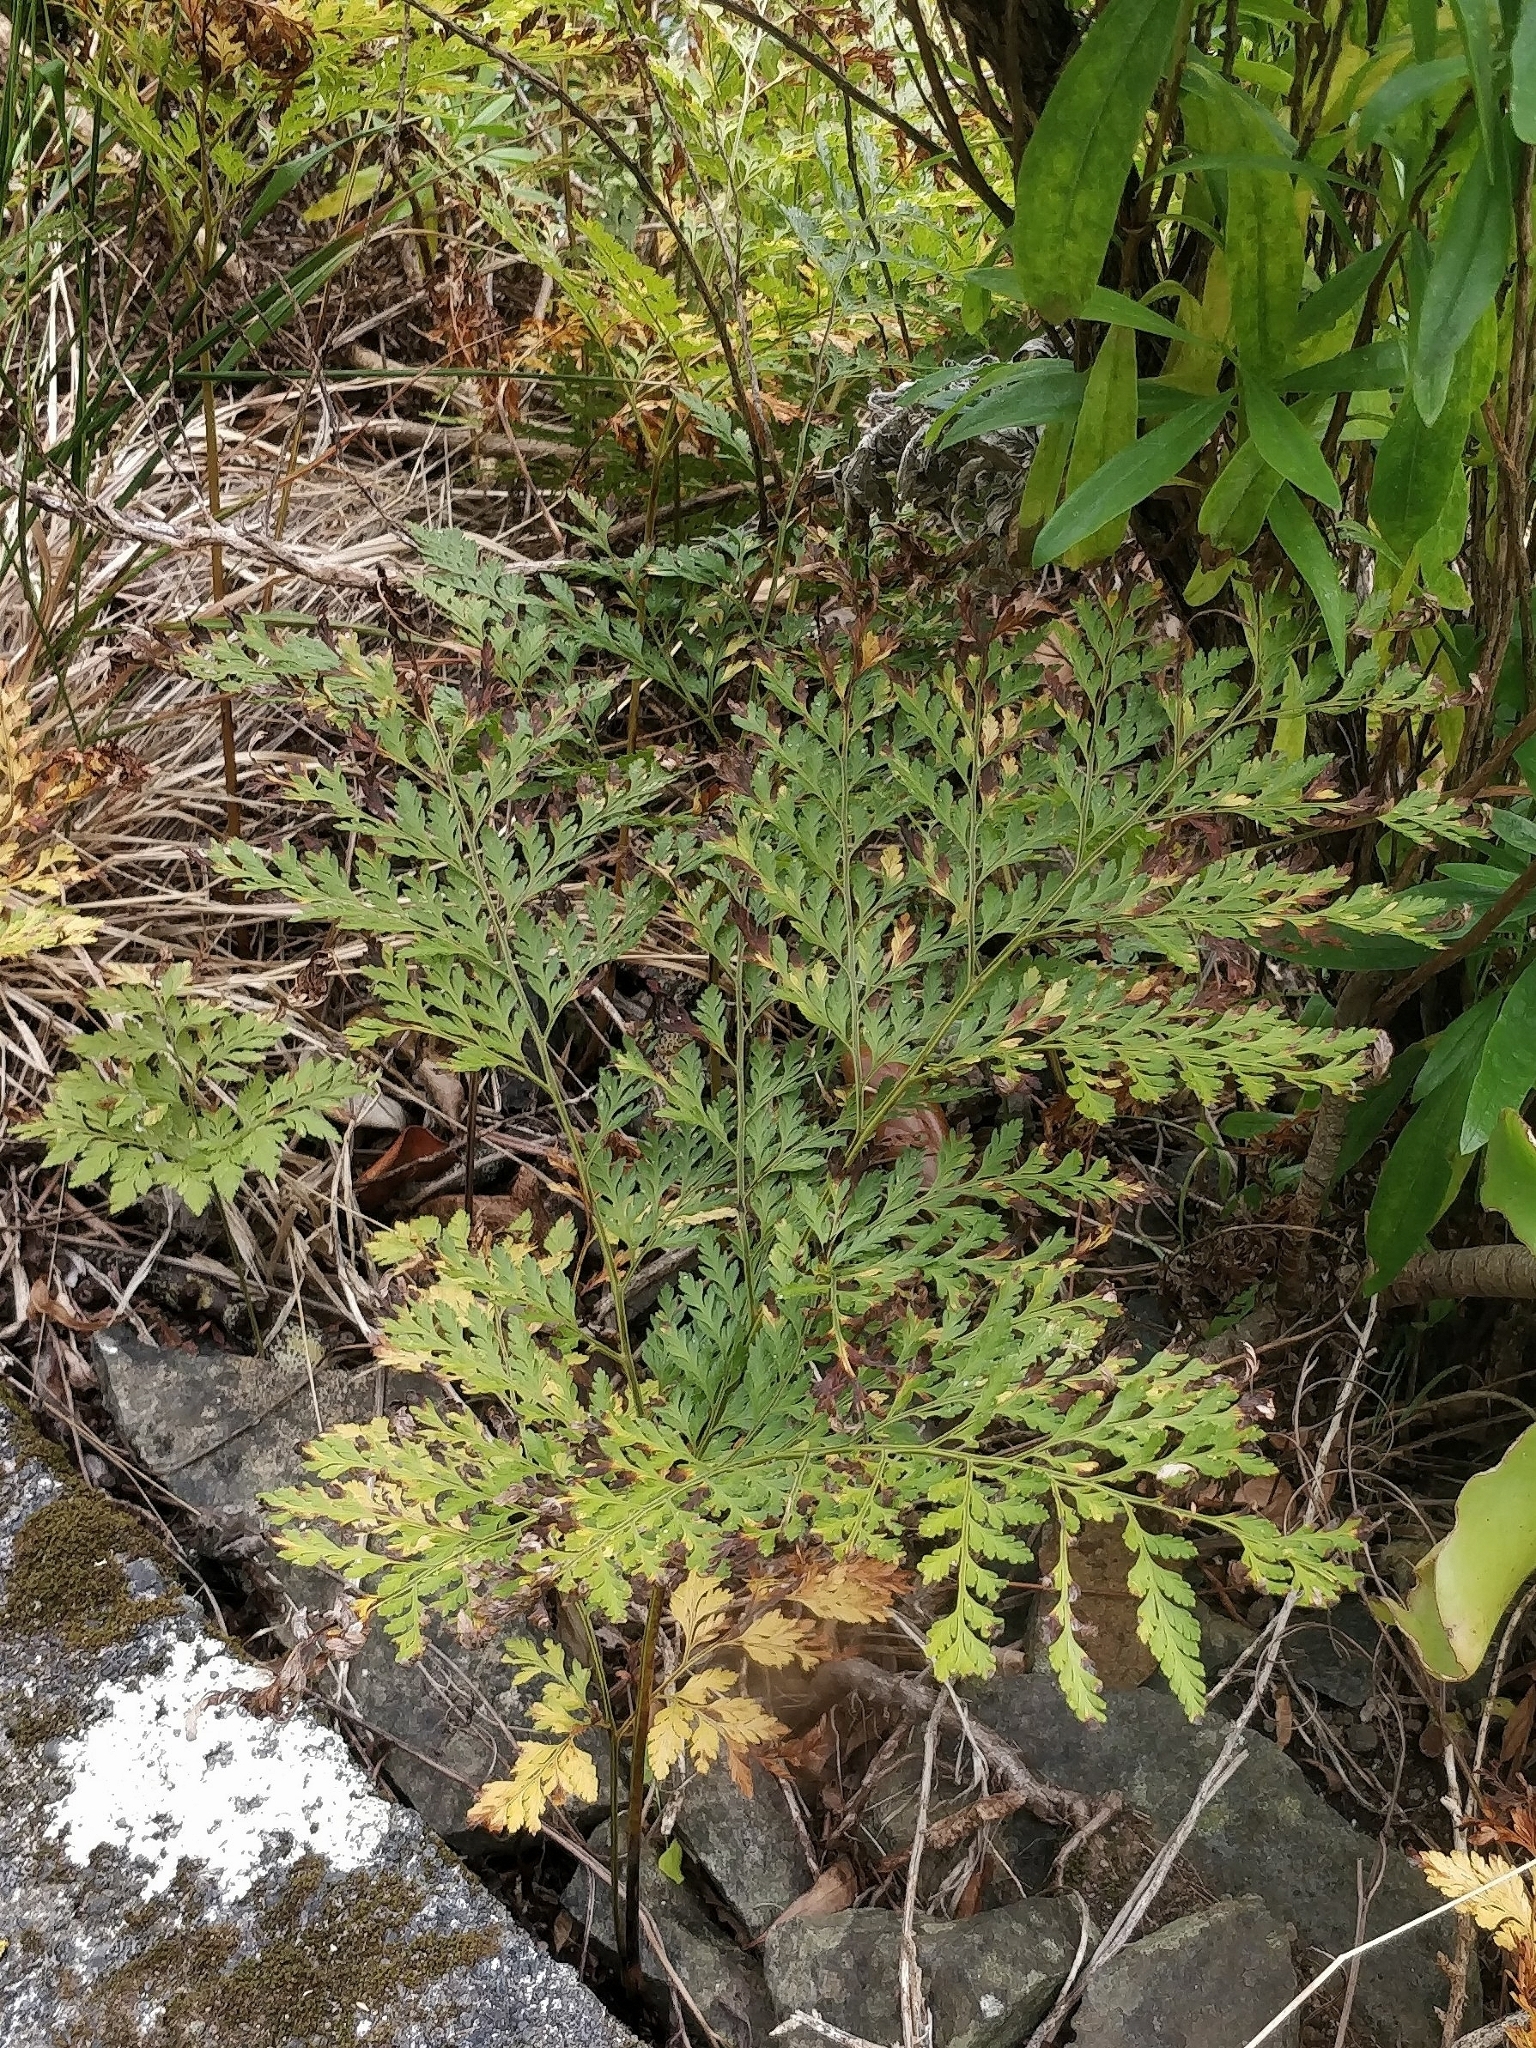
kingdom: Plantae
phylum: Tracheophyta
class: Polypodiopsida
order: Polypodiales
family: Davalliaceae
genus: Davallia
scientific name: Davallia canariensis
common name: Hare's-foot fern
